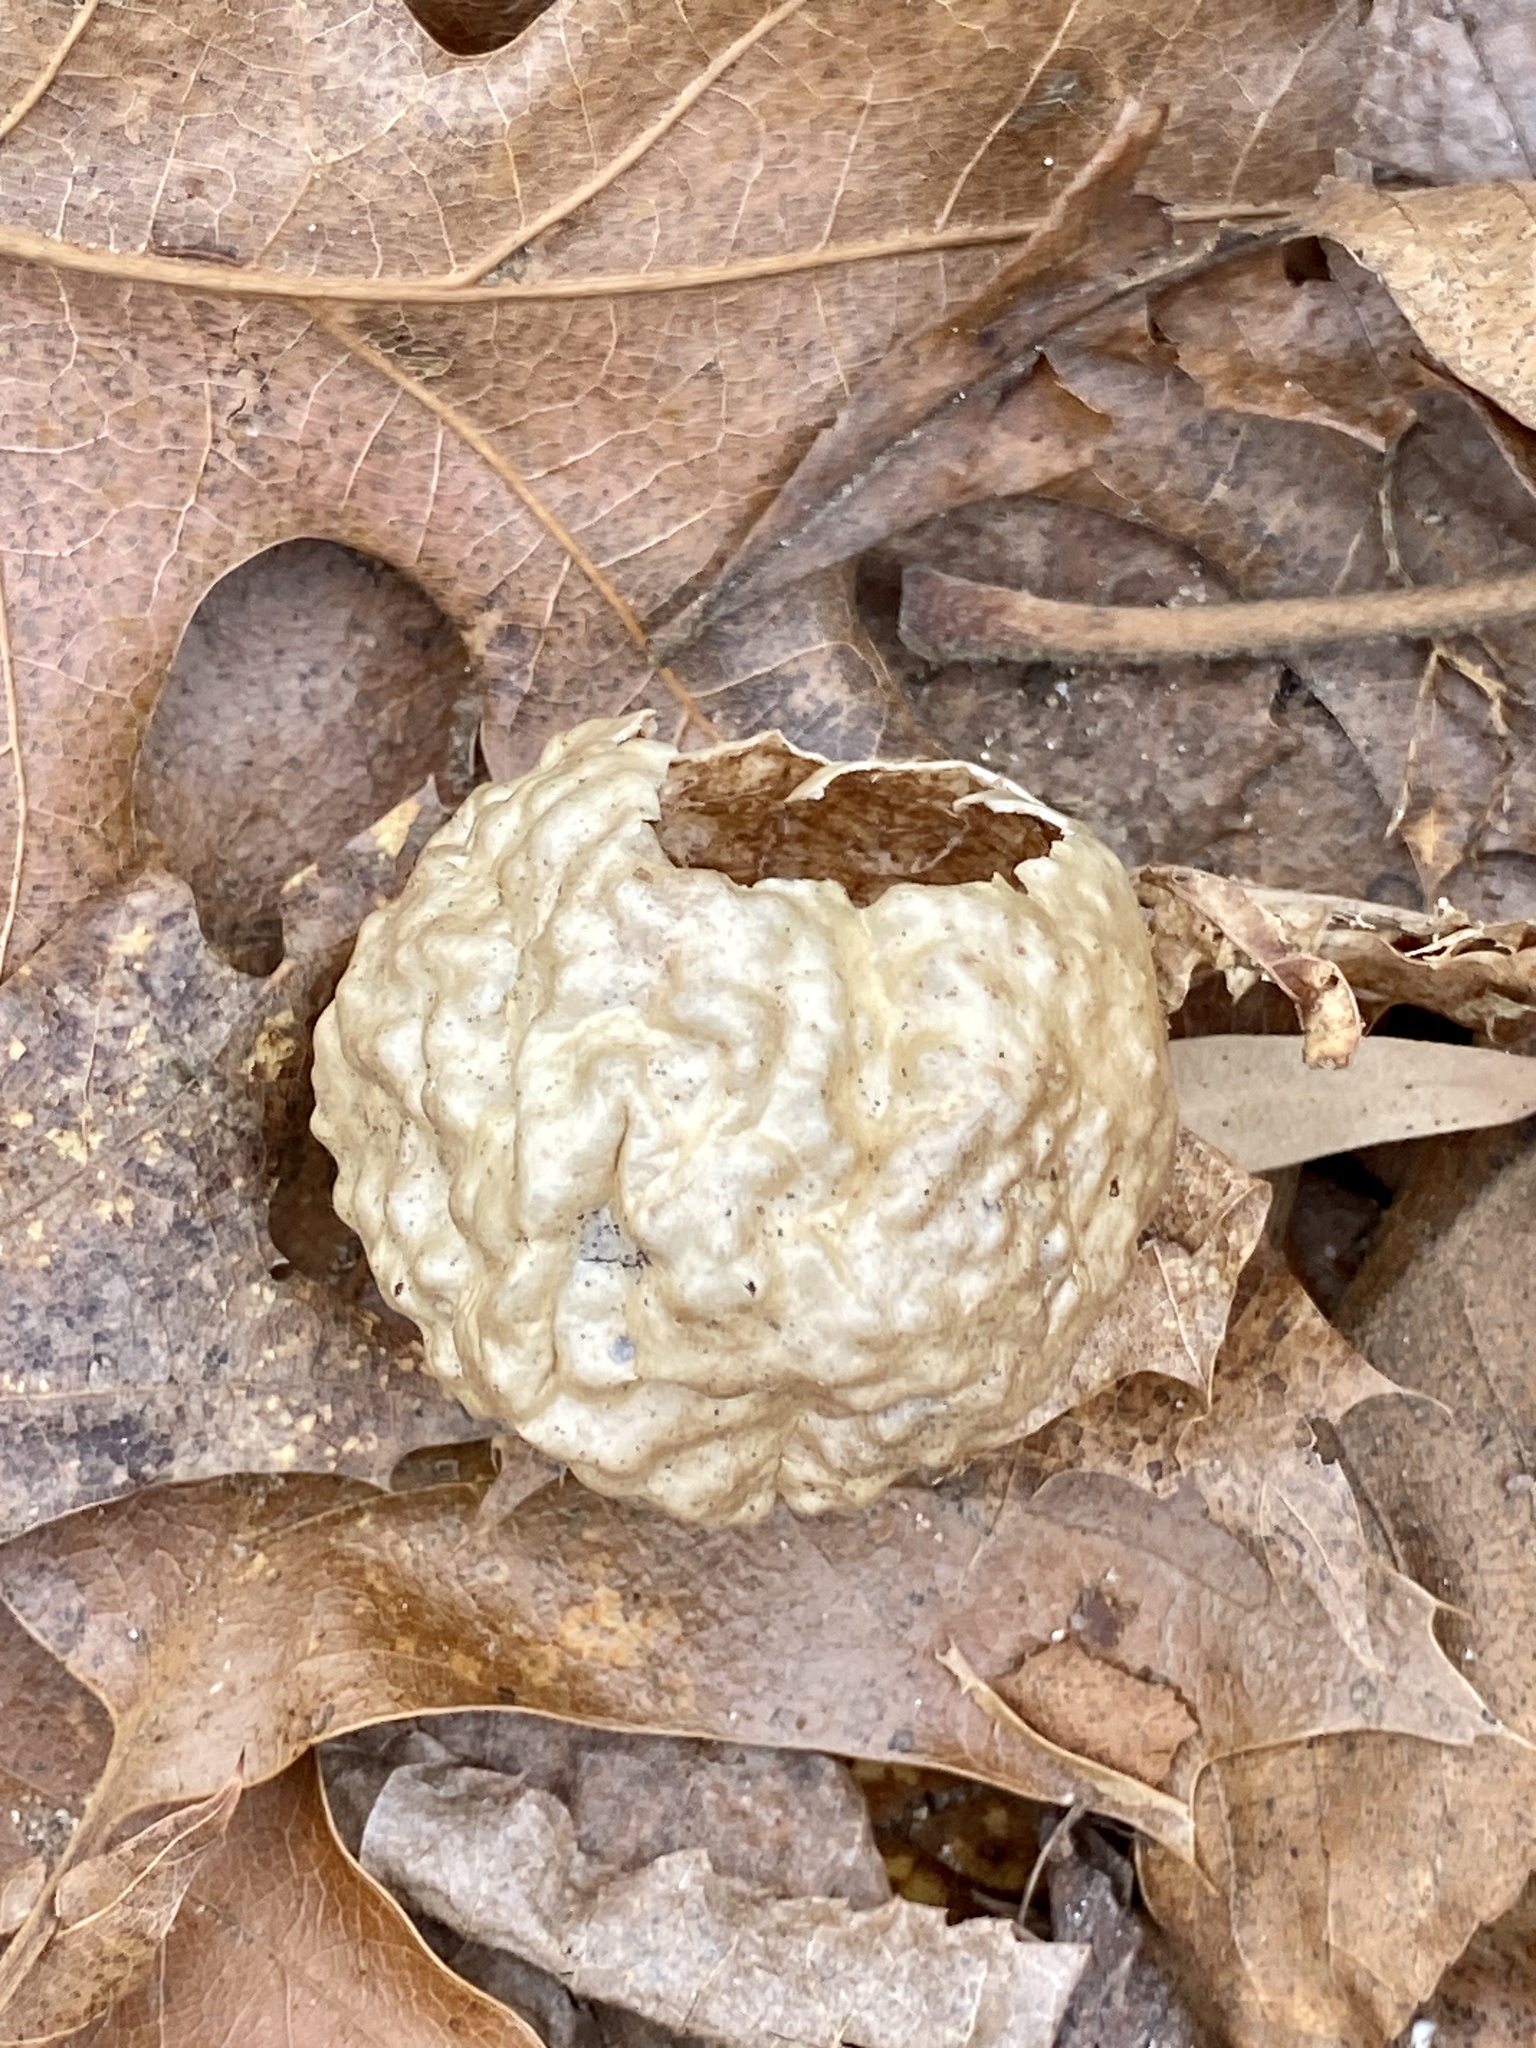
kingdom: Animalia
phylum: Arthropoda
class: Insecta
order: Hymenoptera
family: Cynipidae
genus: Amphibolips
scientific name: Amphibolips
